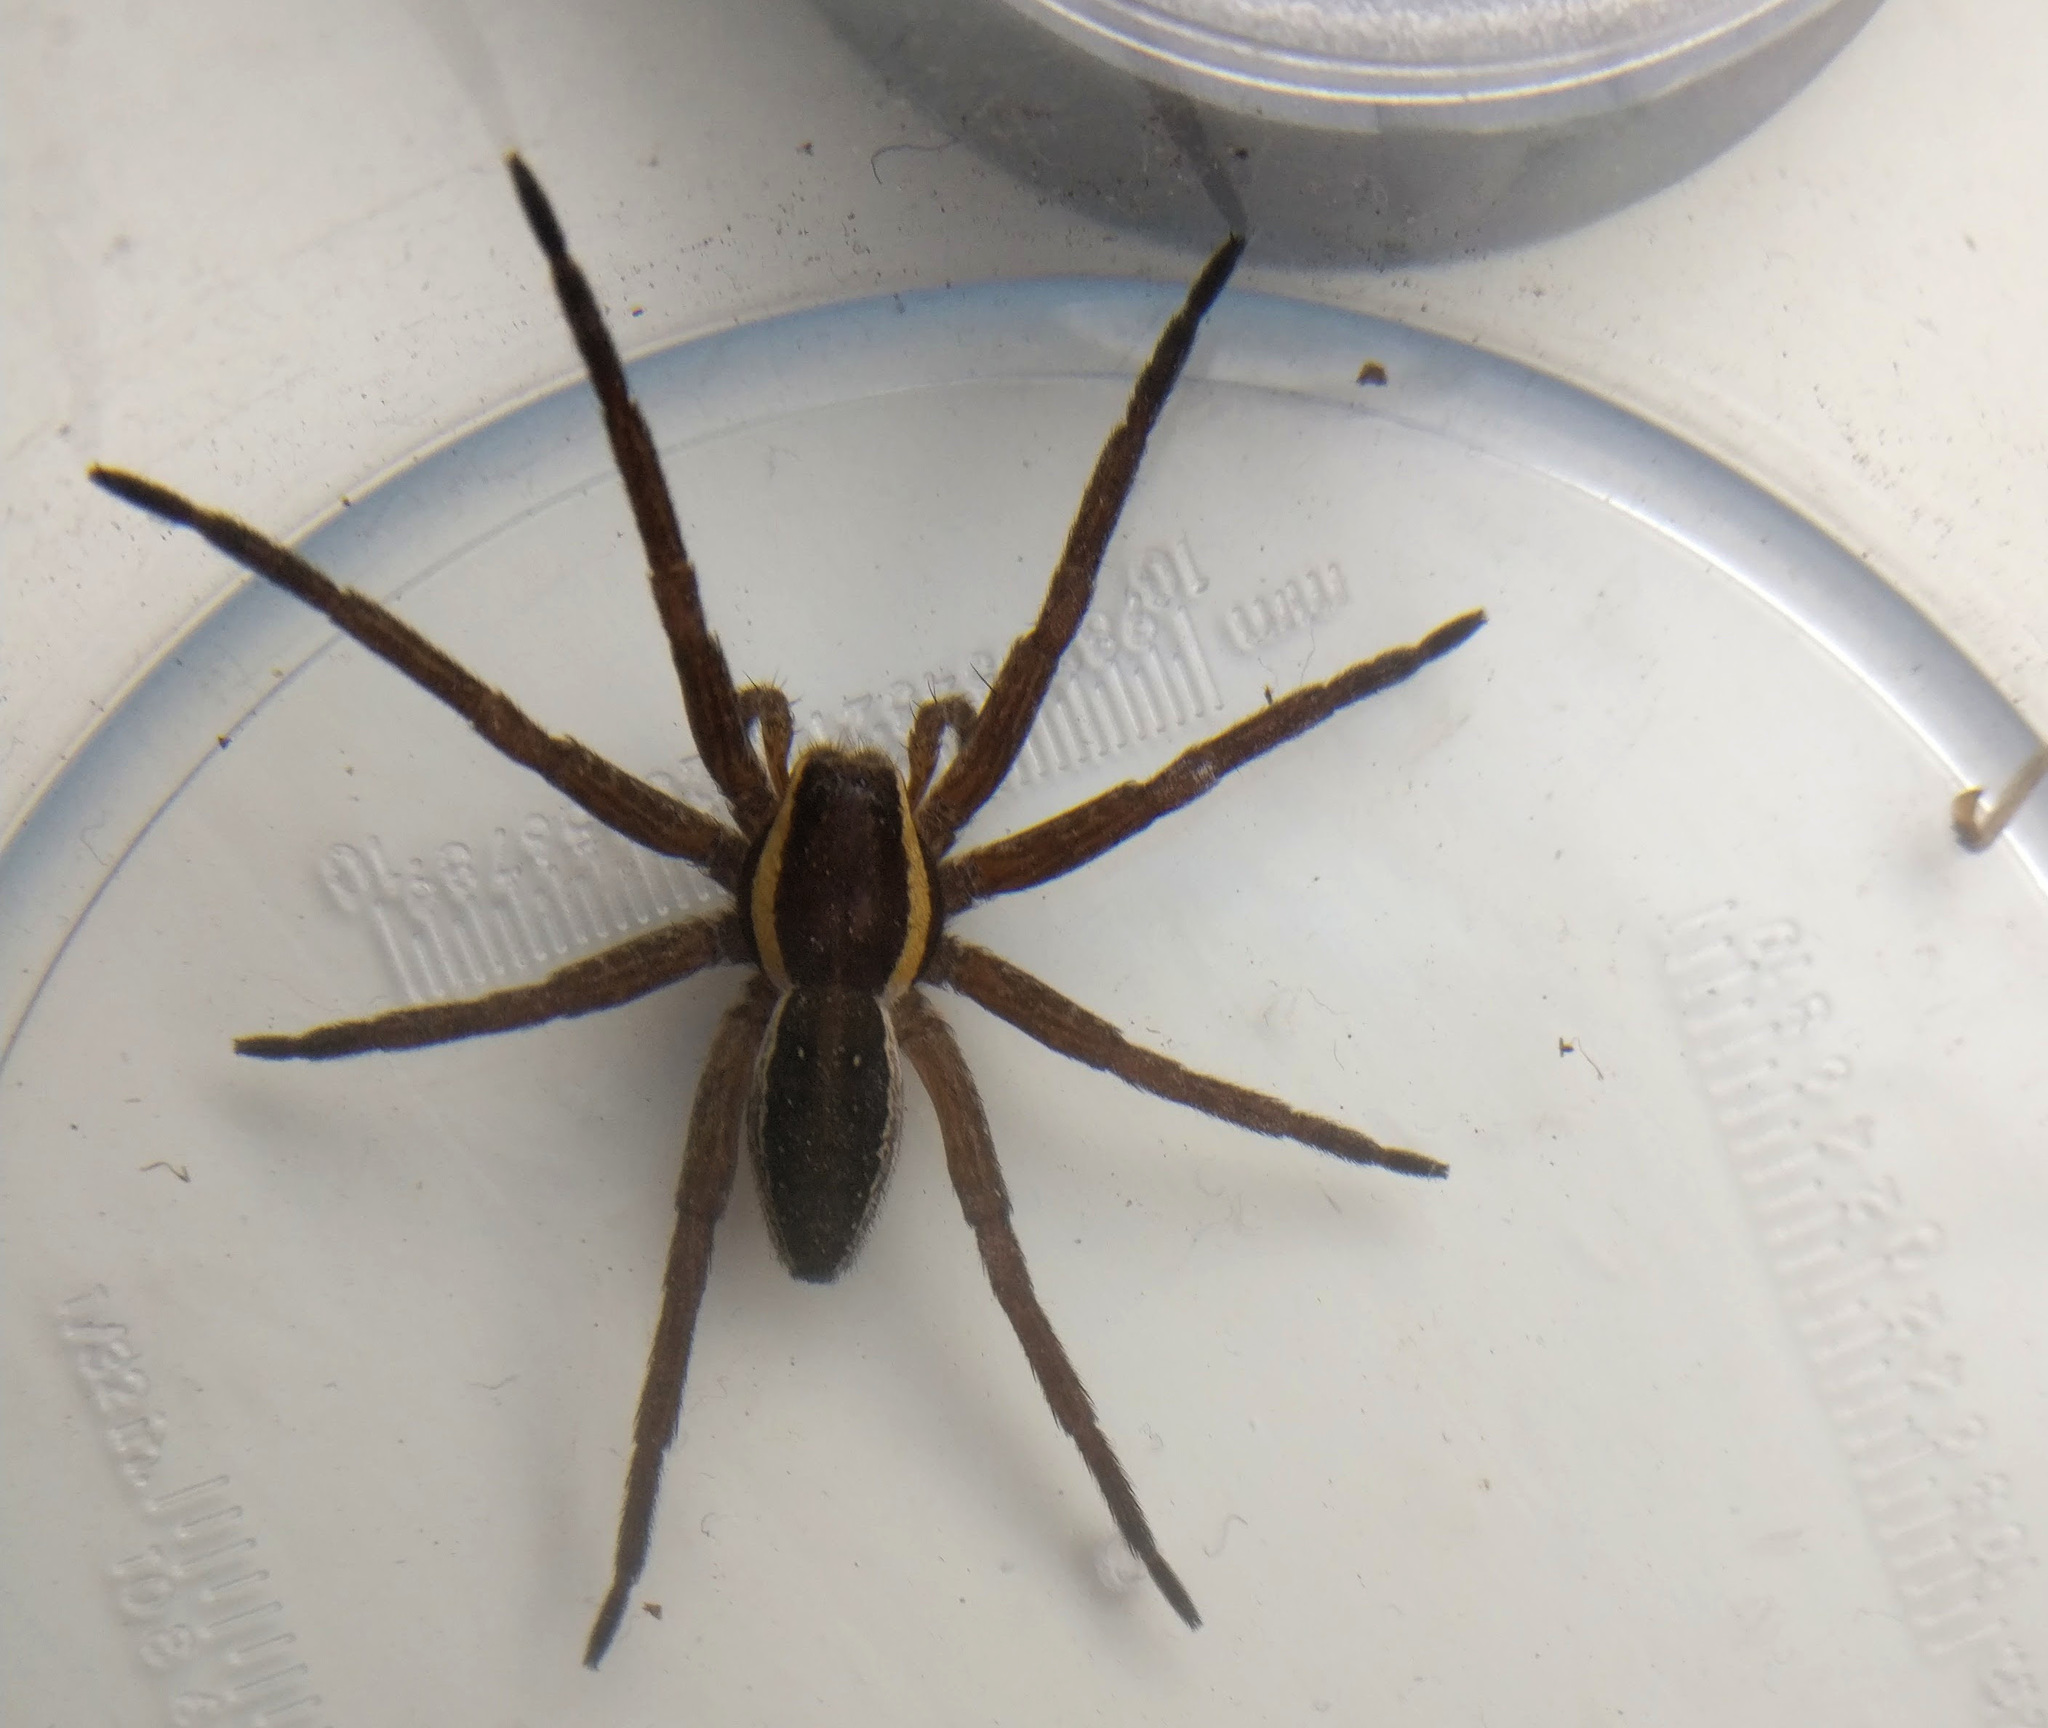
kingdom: Animalia
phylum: Arthropoda
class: Arachnida
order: Araneae
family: Pisauridae
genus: Dolomedes
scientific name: Dolomedes fimbriatus
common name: Raft spider
